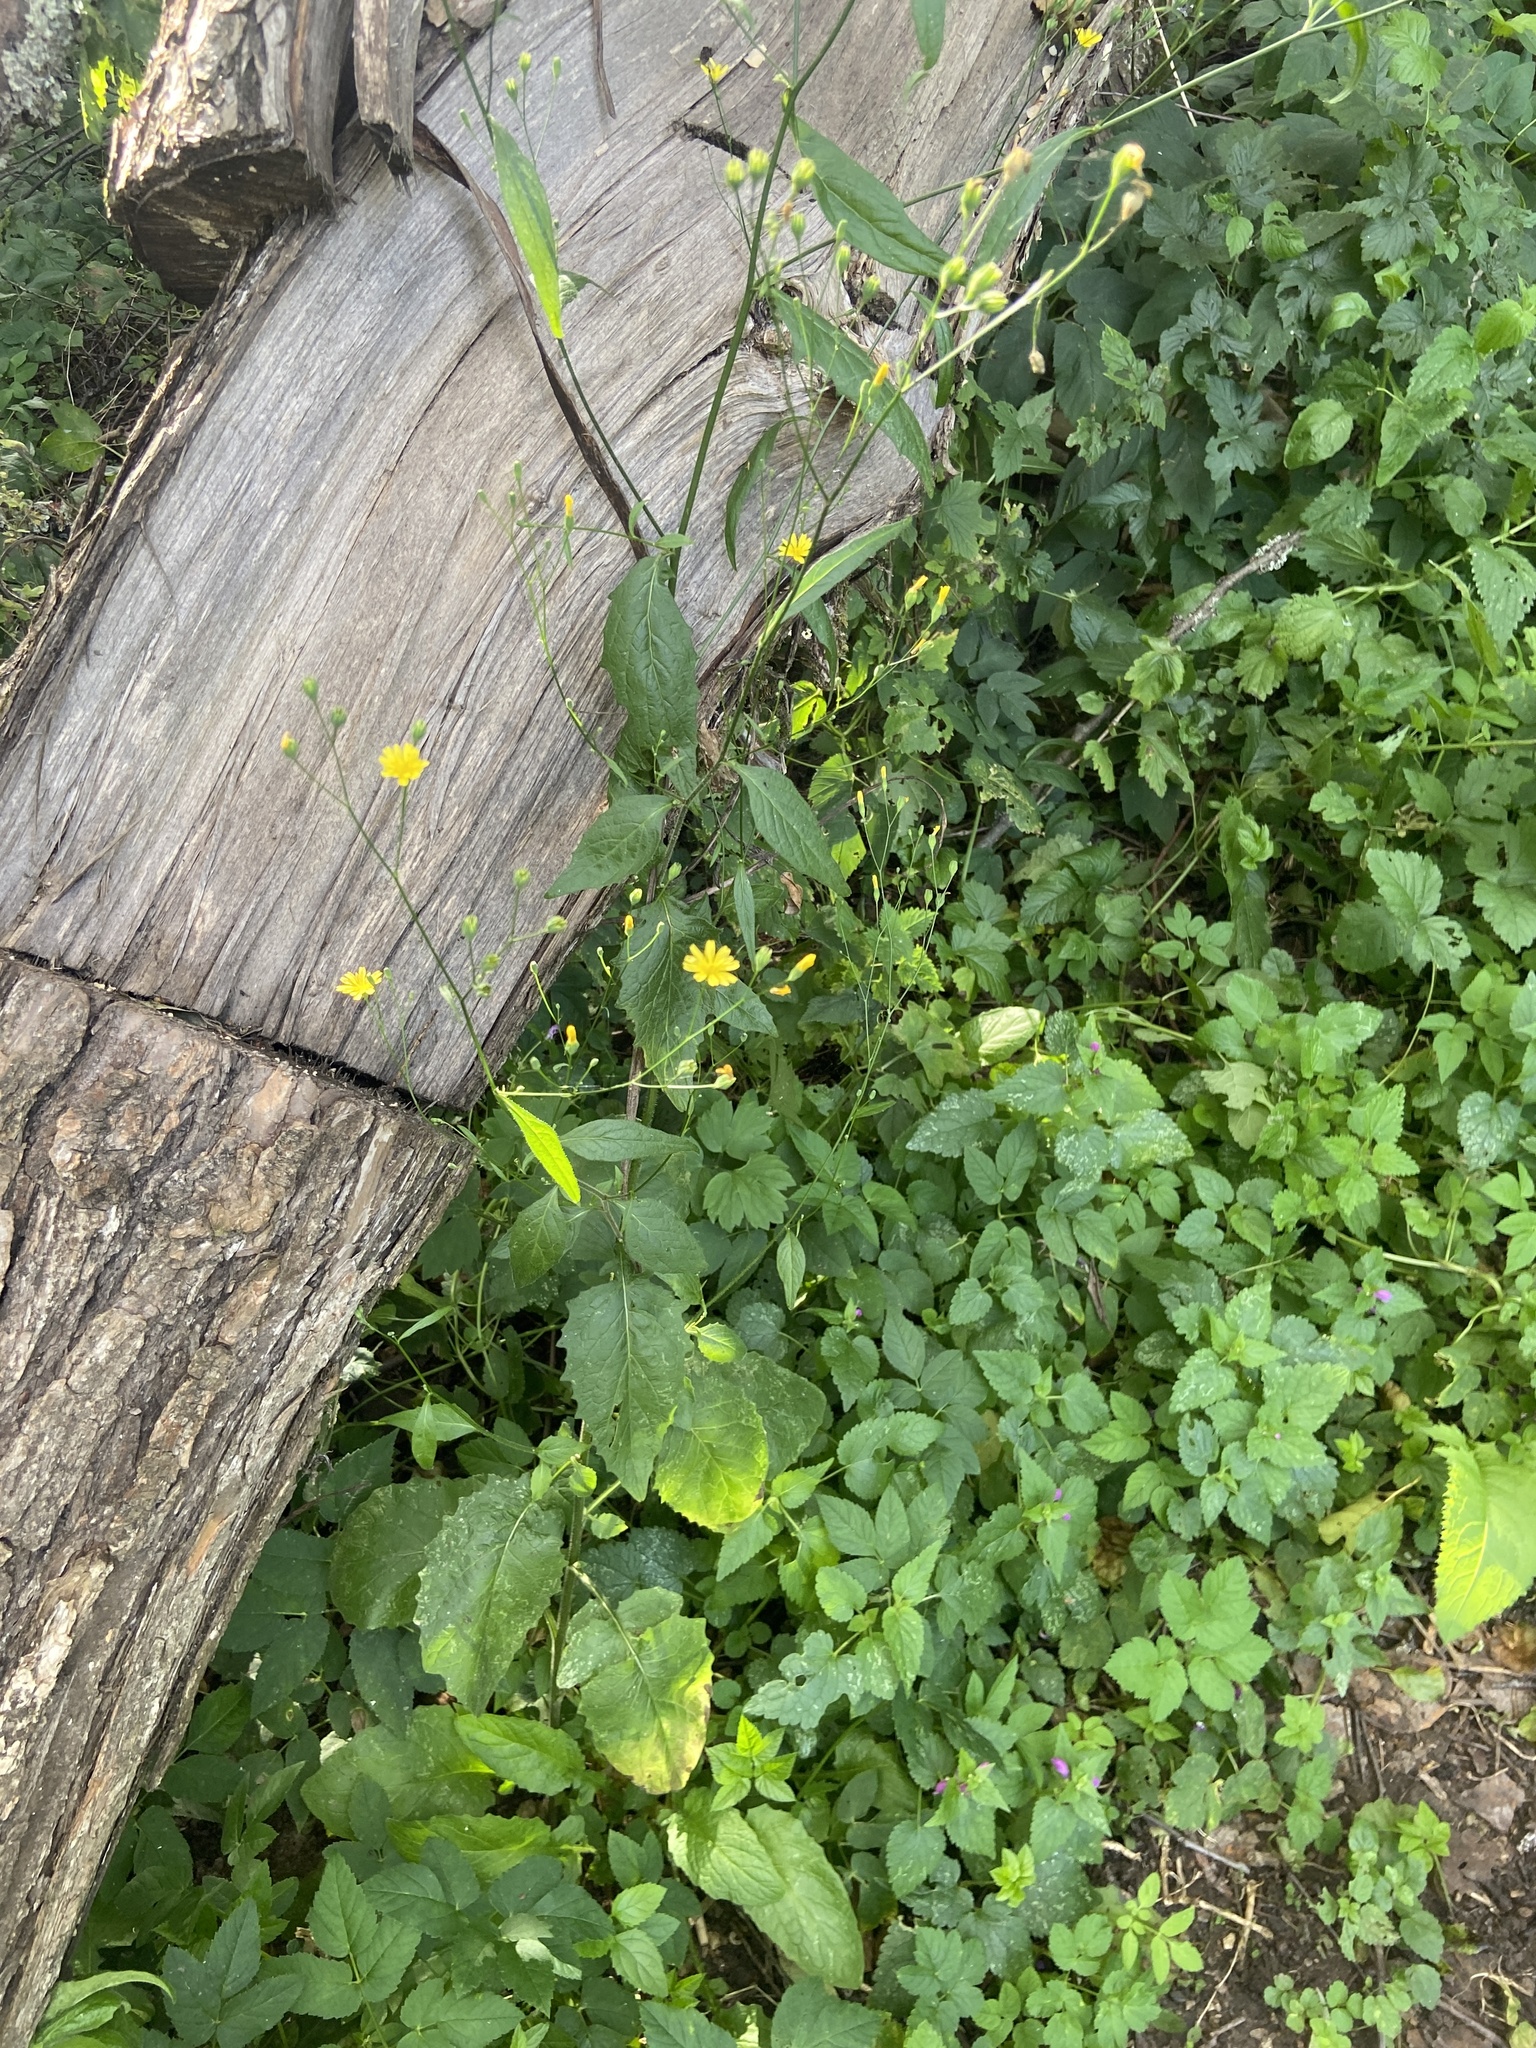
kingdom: Plantae
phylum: Tracheophyta
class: Magnoliopsida
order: Asterales
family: Asteraceae
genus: Lapsana
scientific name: Lapsana communis
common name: Nipplewort
